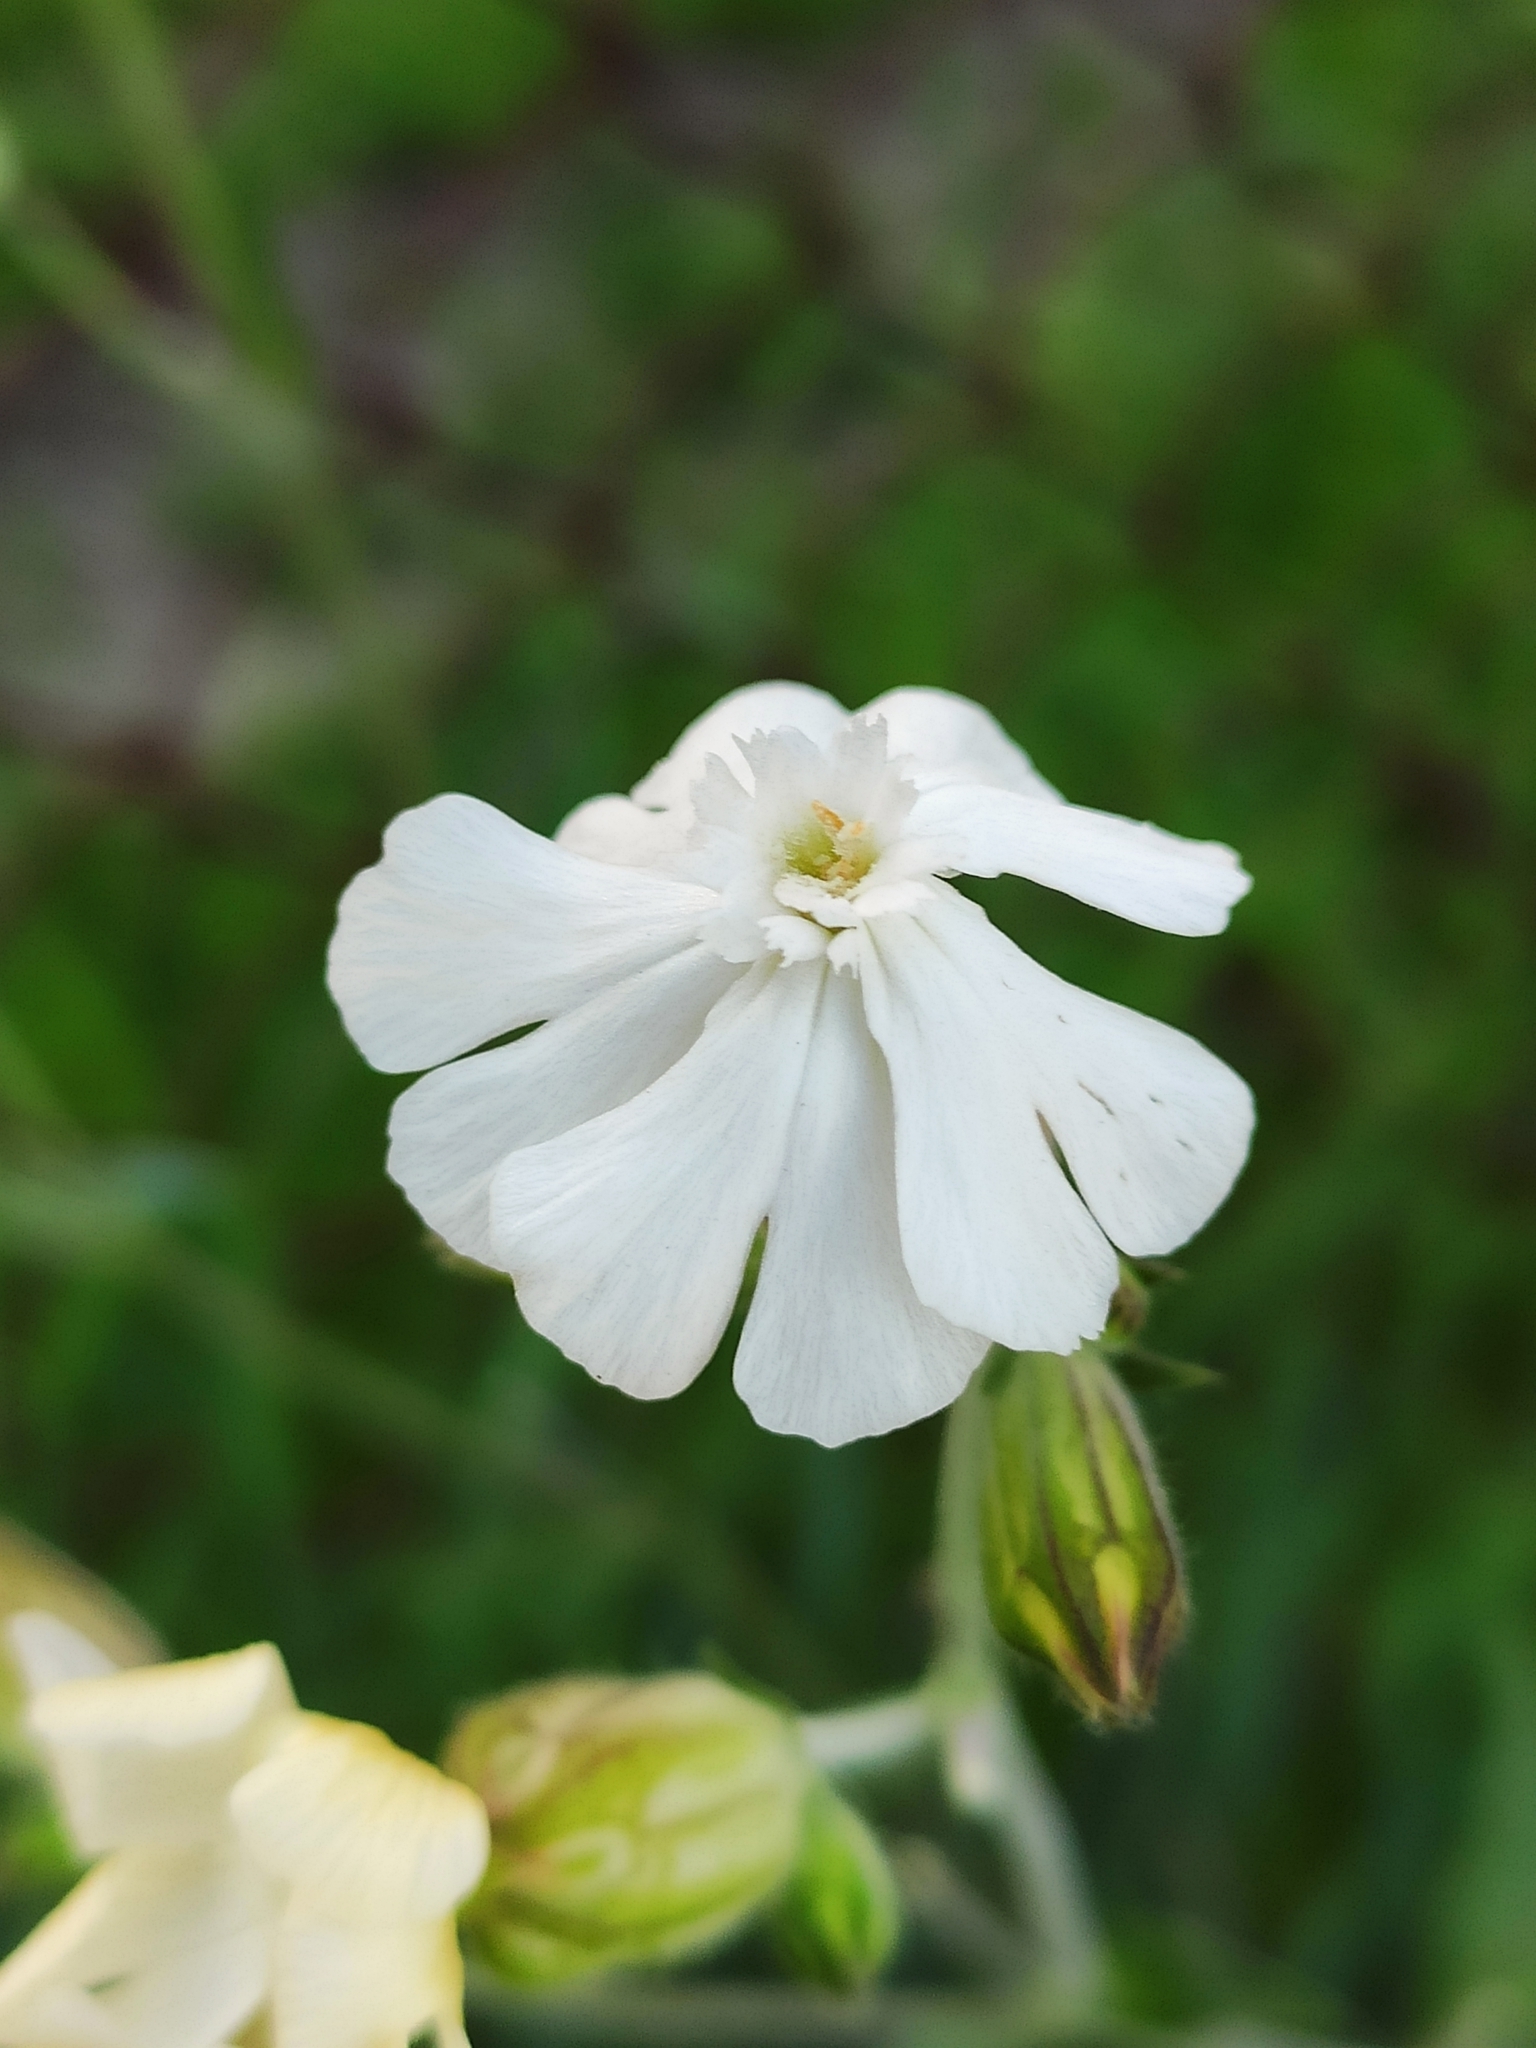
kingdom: Plantae
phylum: Tracheophyta
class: Magnoliopsida
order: Caryophyllales
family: Caryophyllaceae
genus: Silene
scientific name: Silene latifolia
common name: White campion
